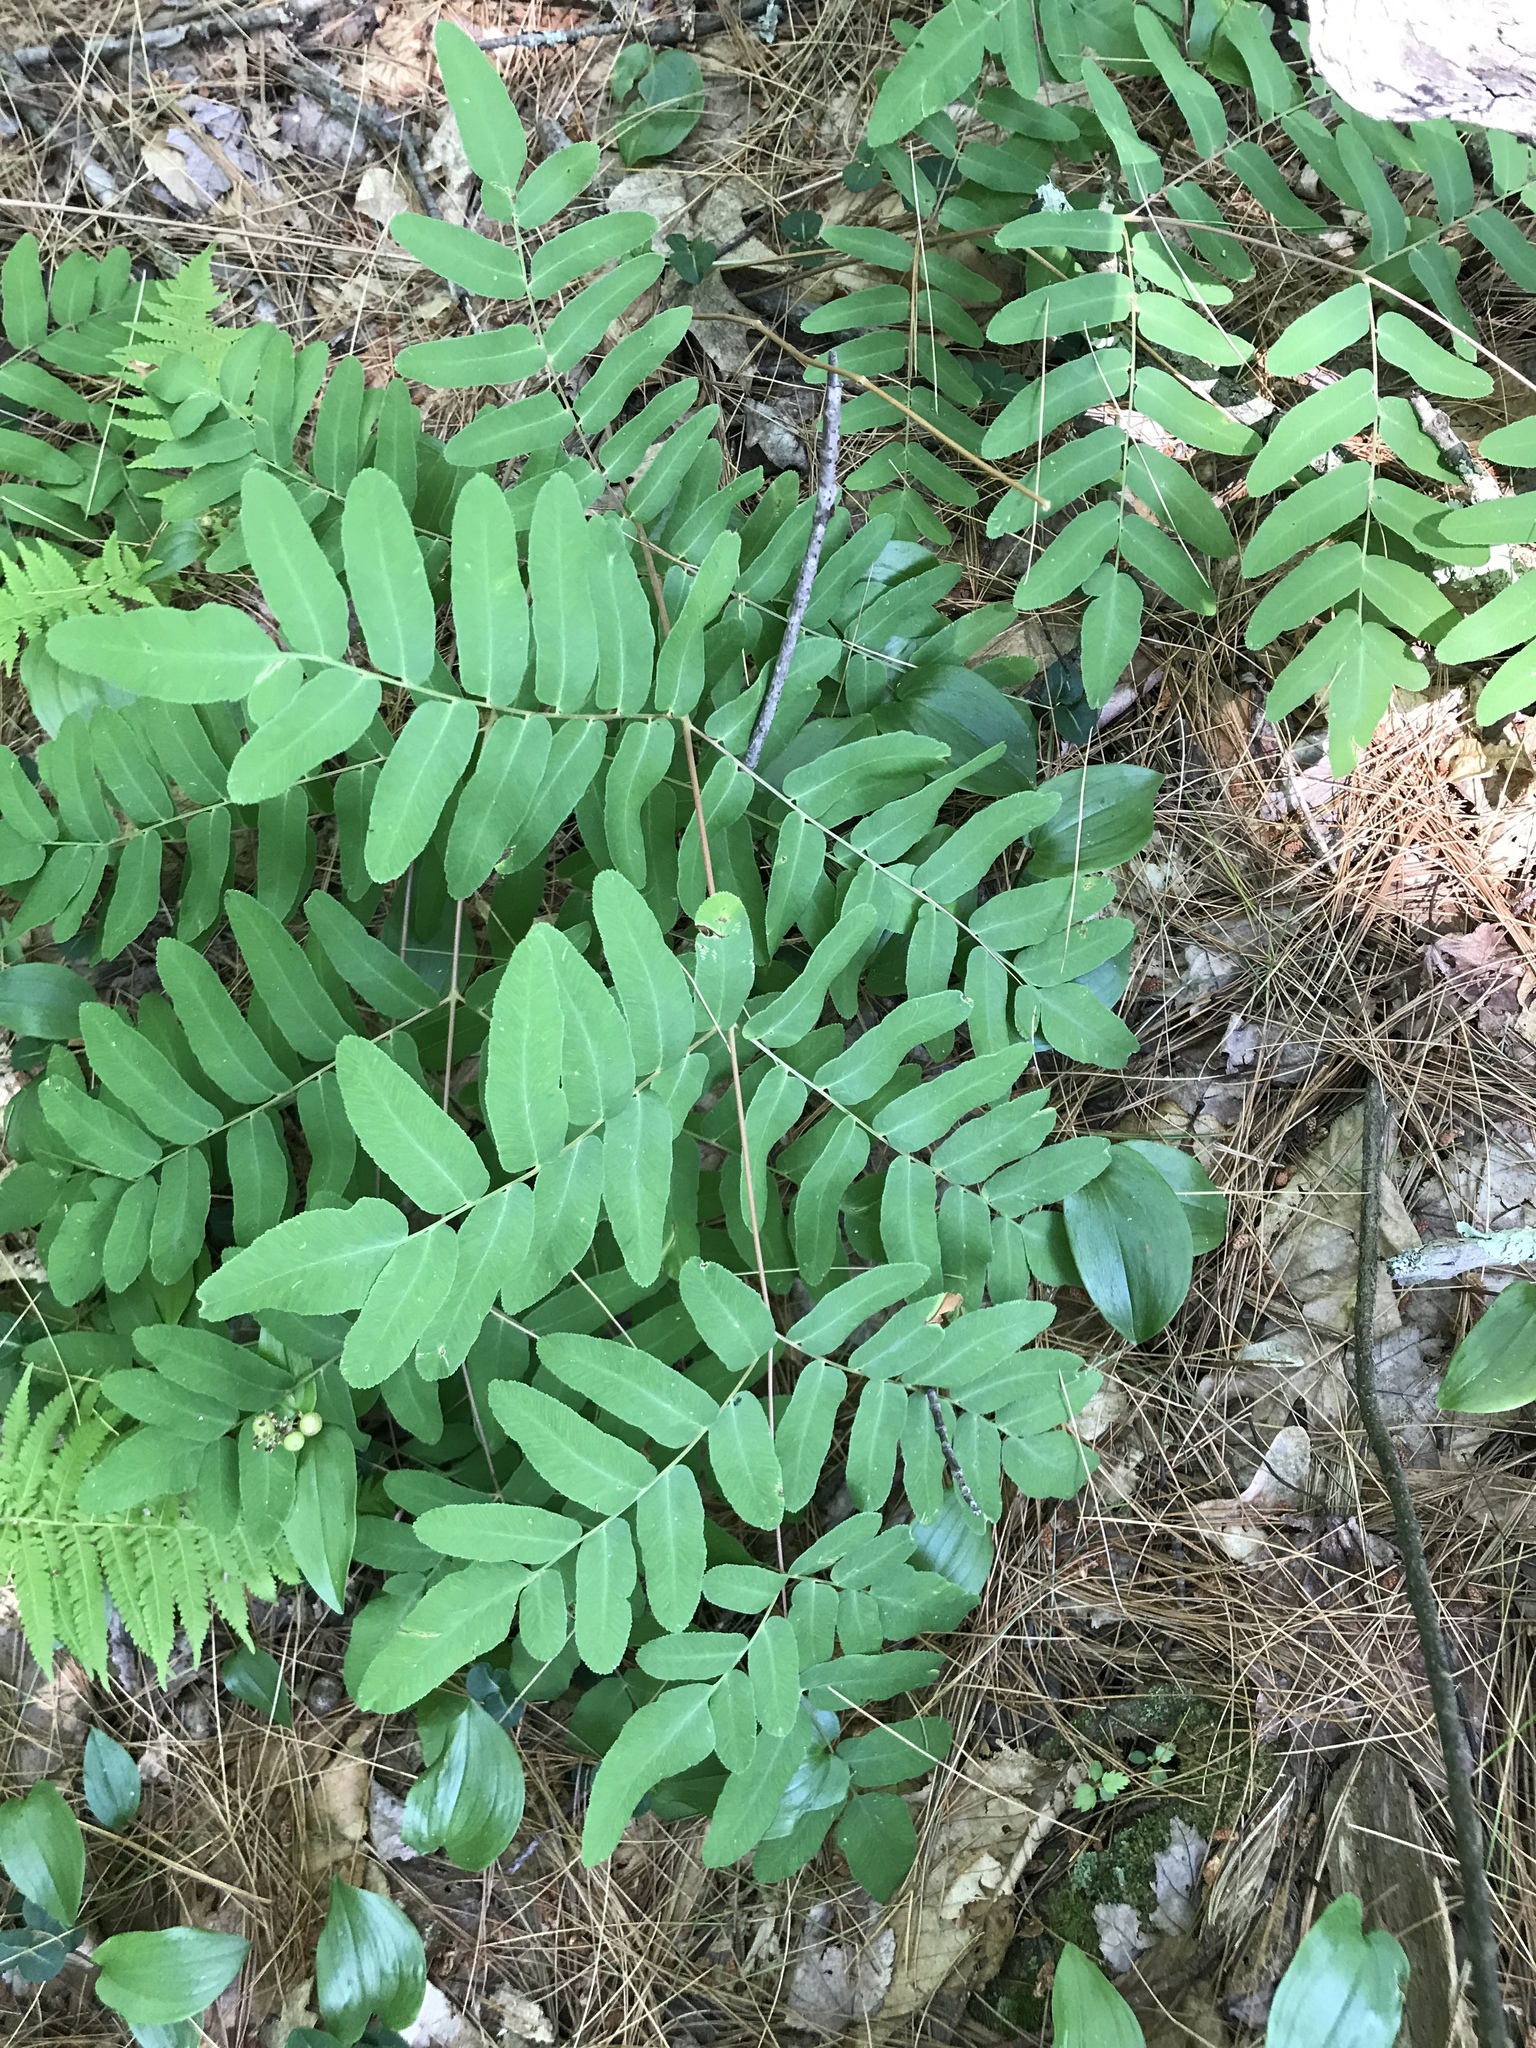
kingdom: Plantae
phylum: Tracheophyta
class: Polypodiopsida
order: Osmundales
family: Osmundaceae
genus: Osmunda
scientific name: Osmunda spectabilis
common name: American royal fern
